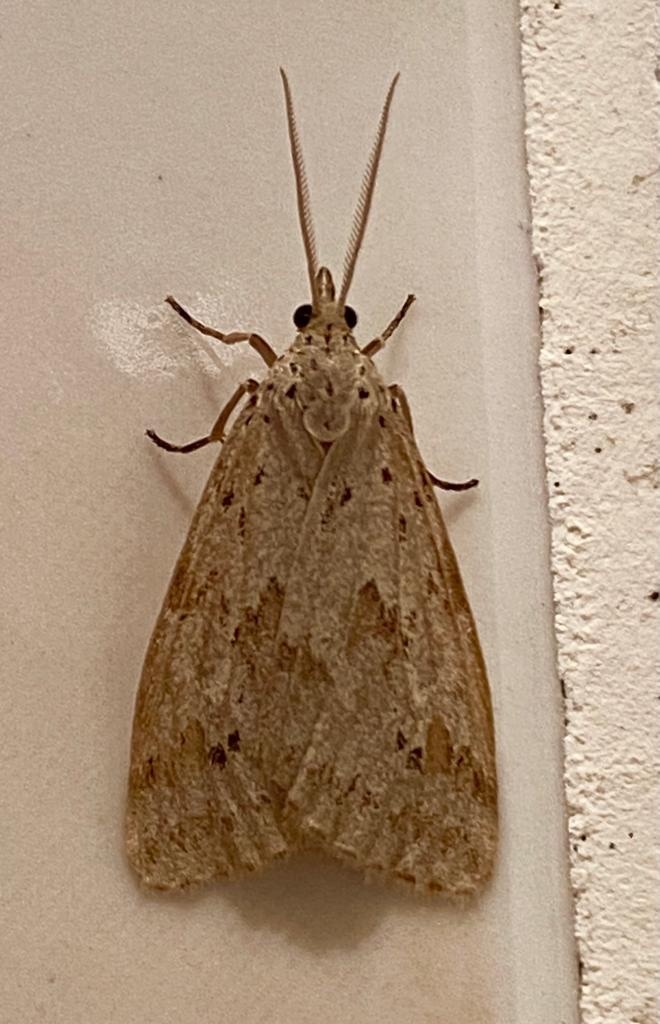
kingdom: Animalia
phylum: Arthropoda
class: Insecta
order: Lepidoptera
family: Erebidae
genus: Galtara
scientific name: Galtara rostrata
